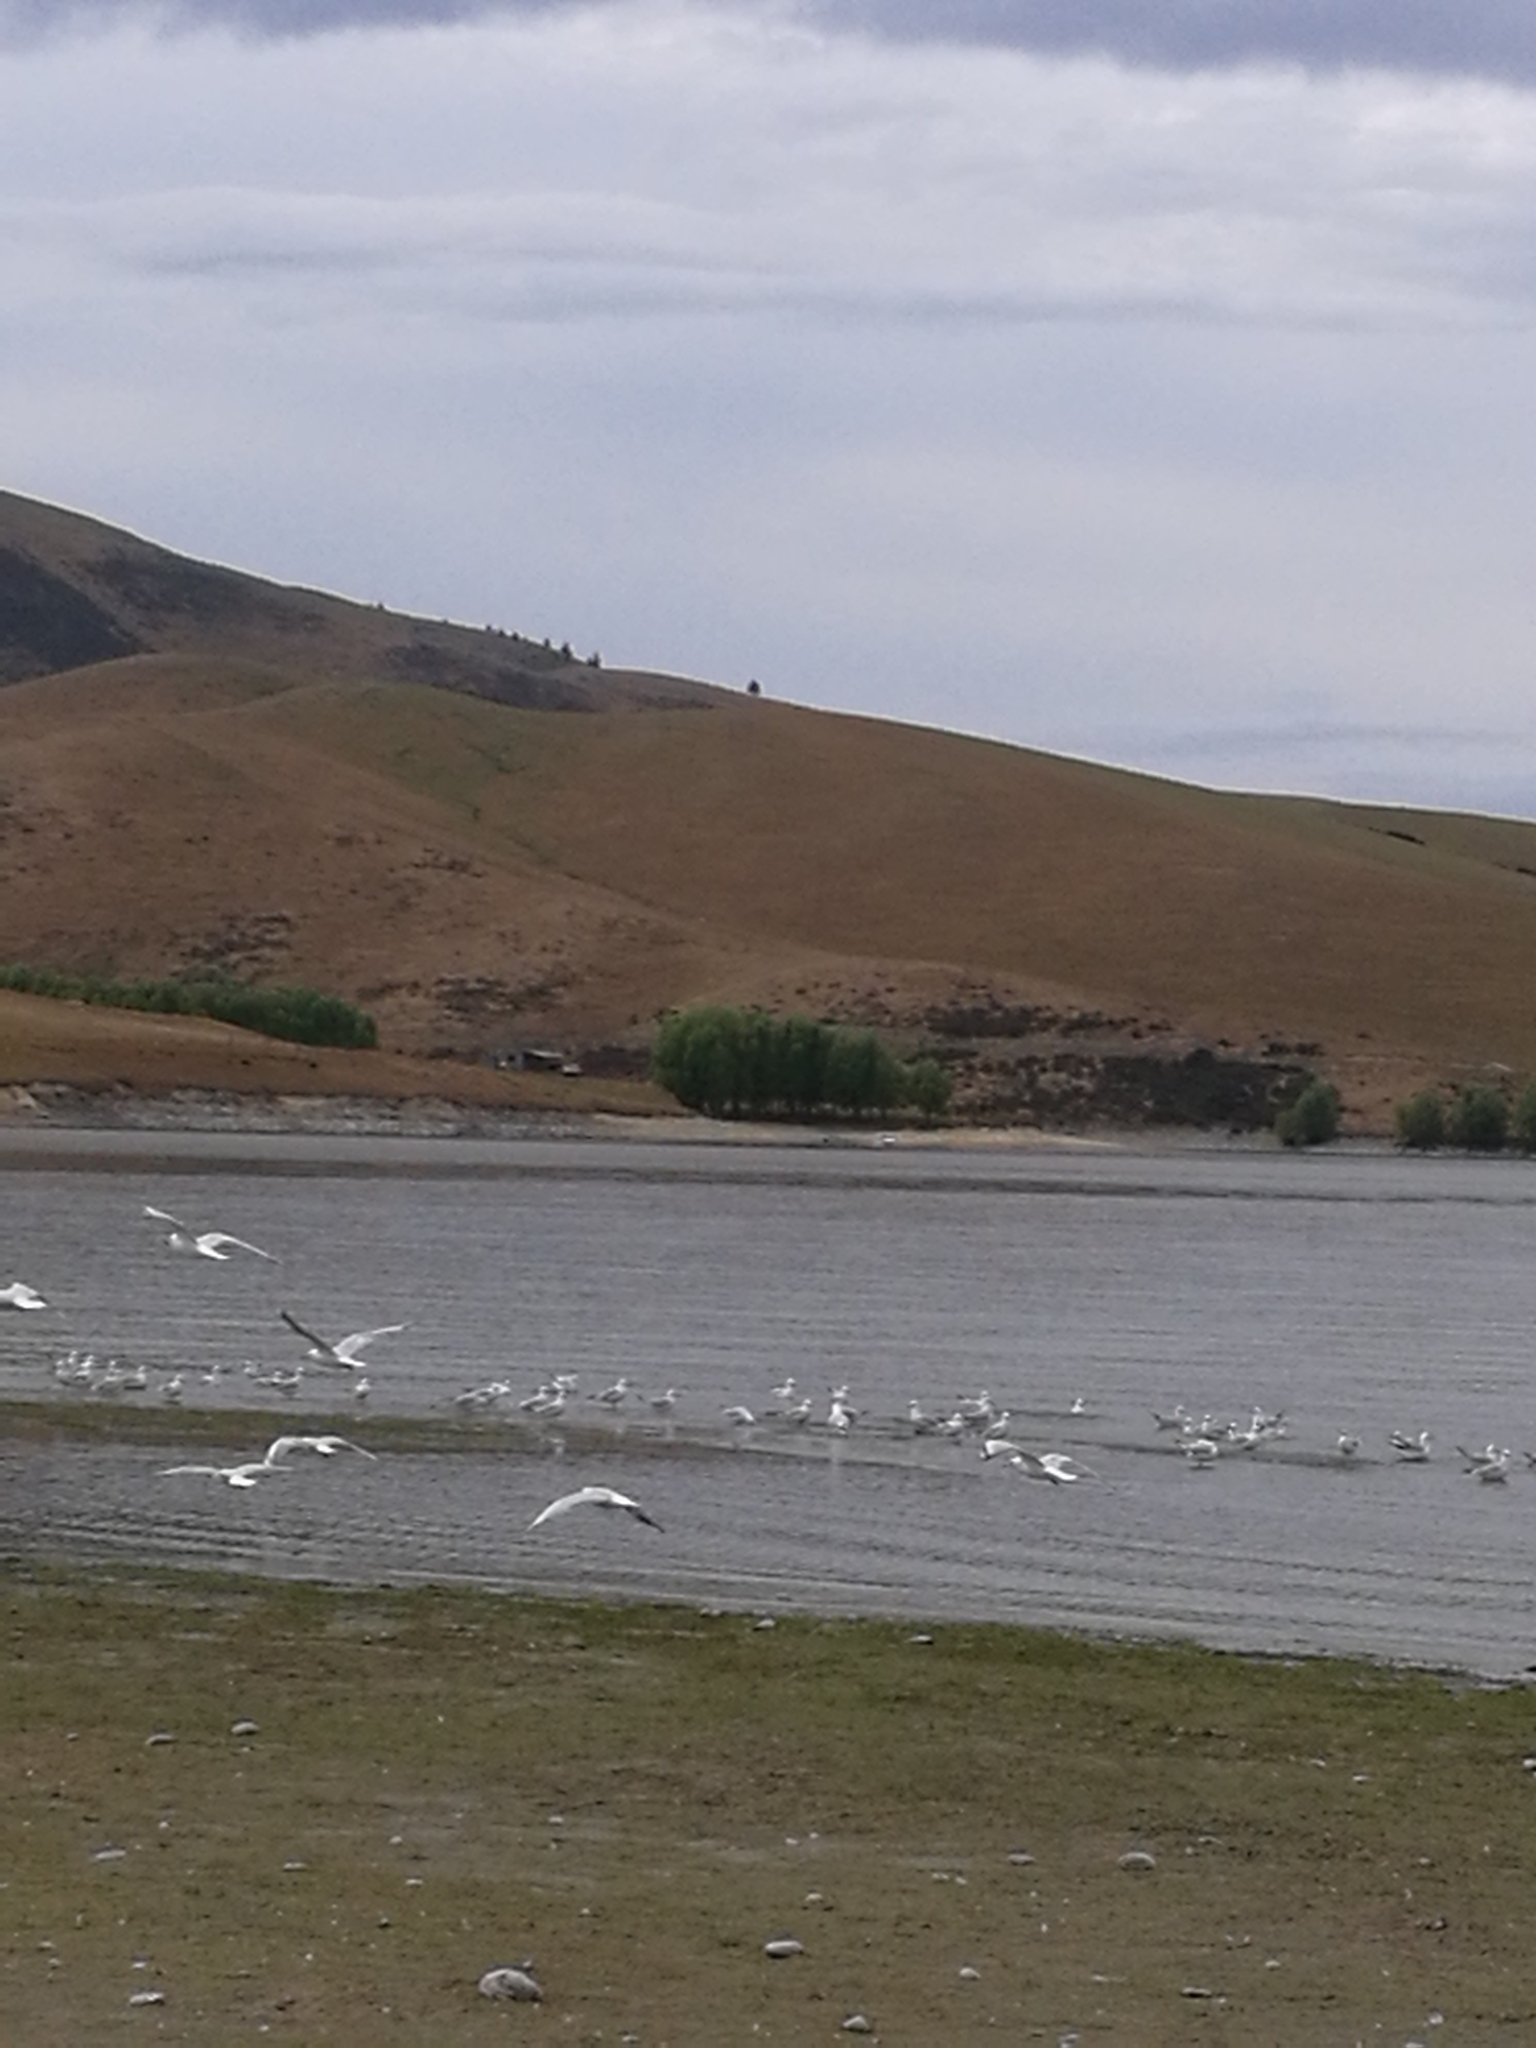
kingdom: Animalia
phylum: Chordata
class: Aves
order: Charadriiformes
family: Laridae
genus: Chroicocephalus
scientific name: Chroicocephalus bulleri
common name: Black-billed gull
